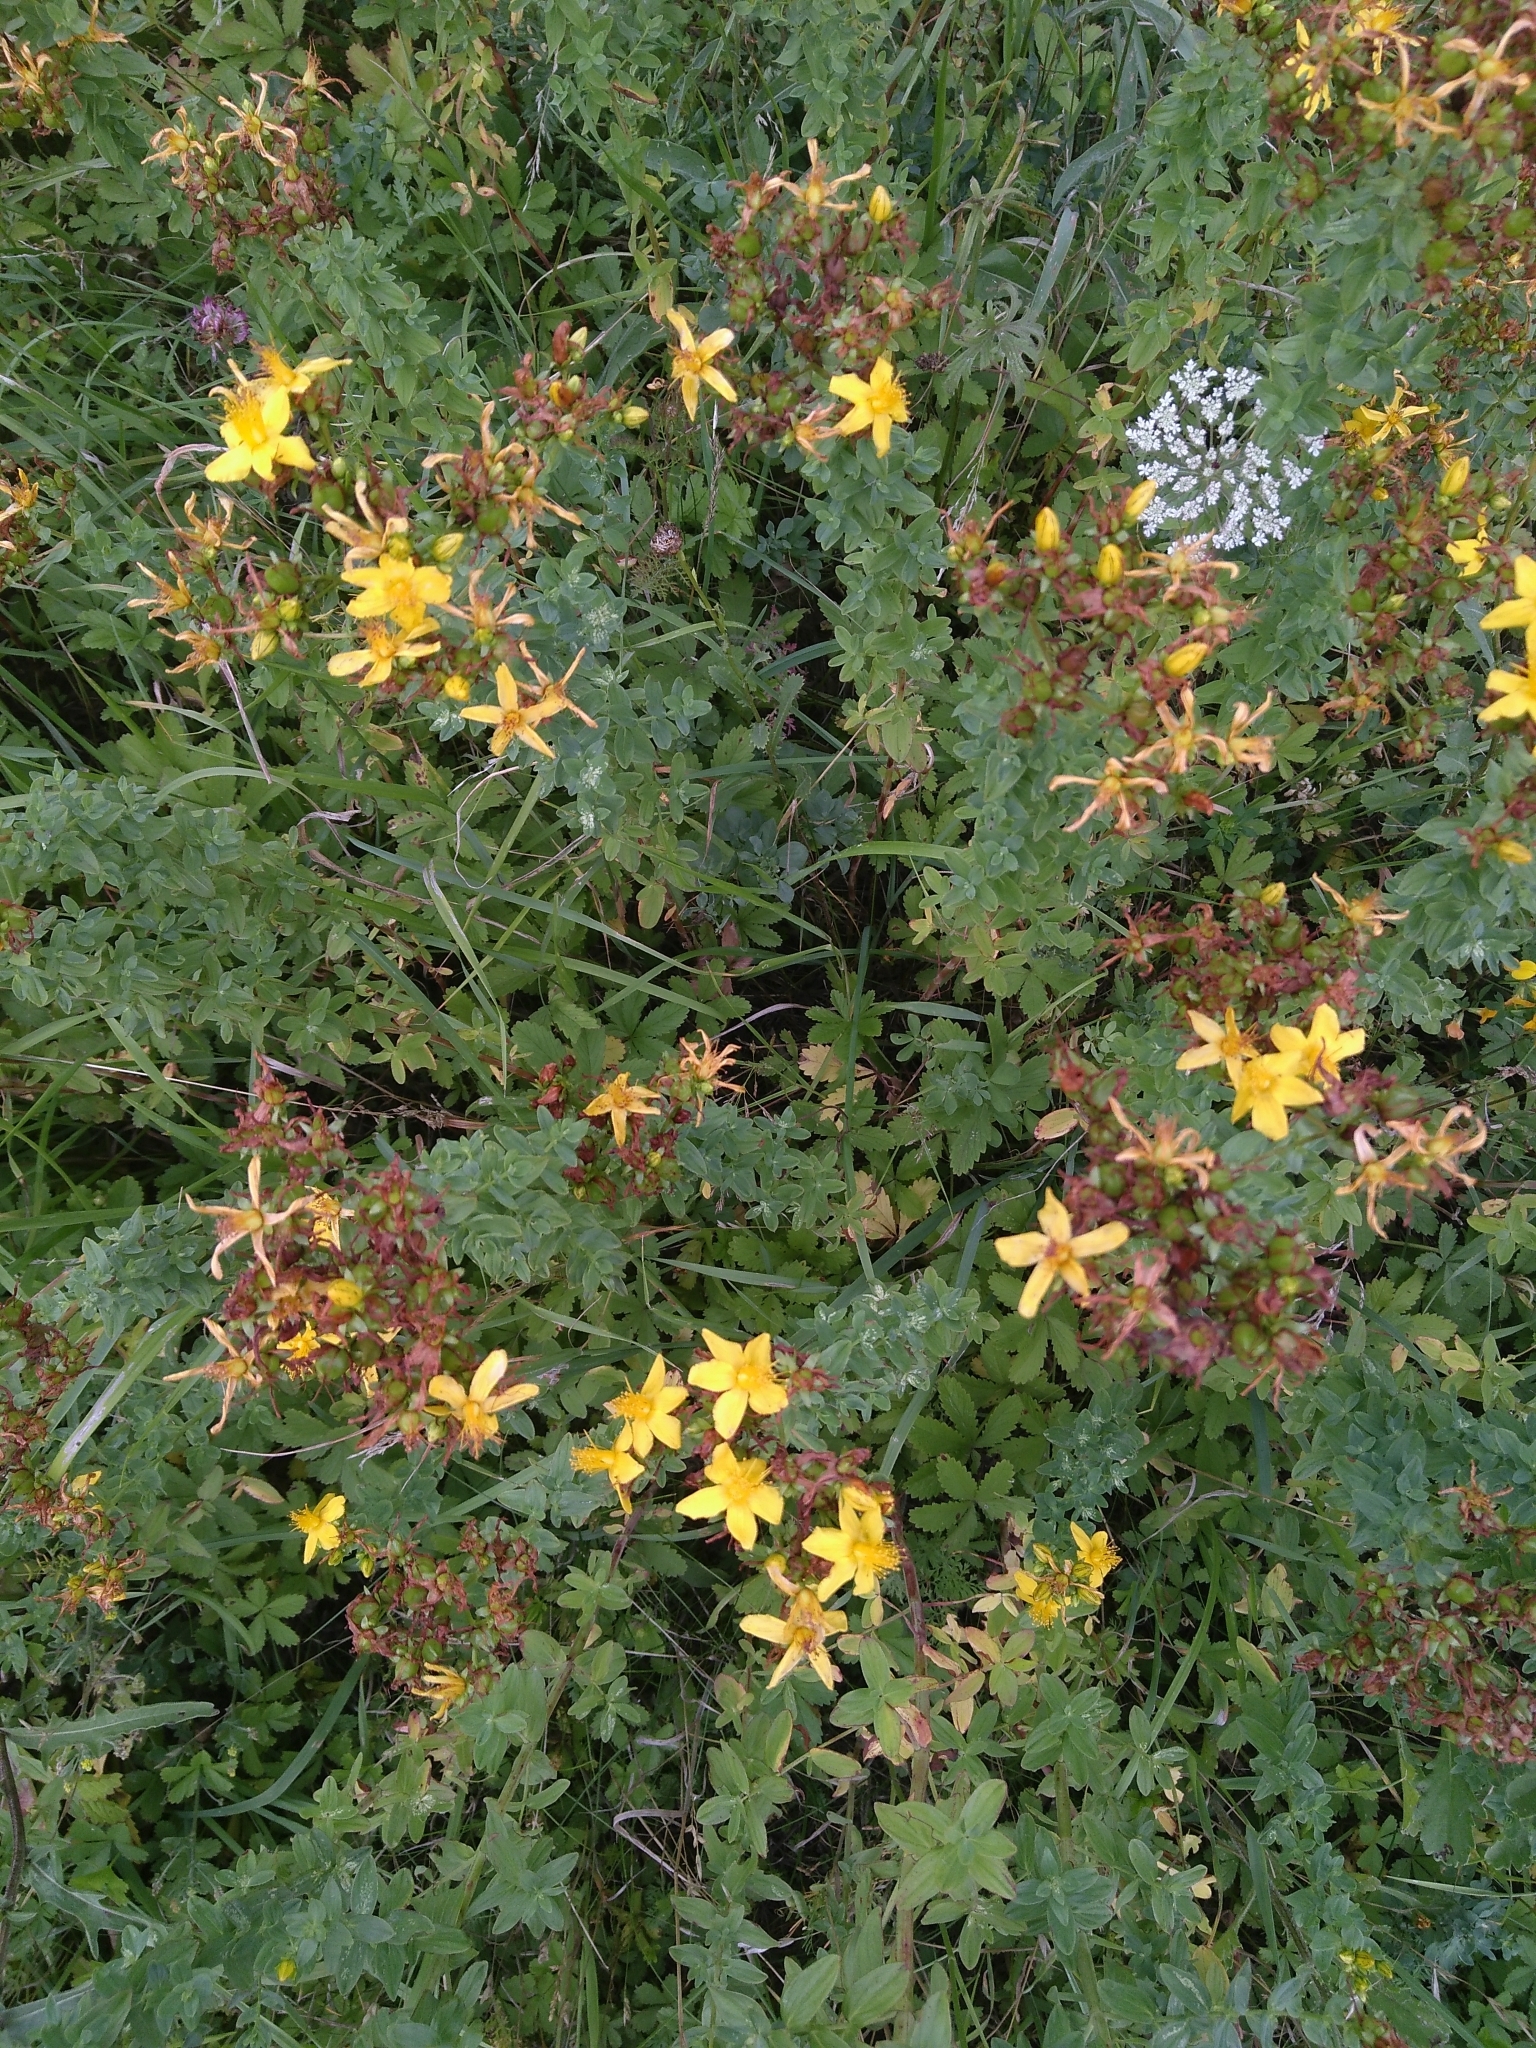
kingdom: Plantae
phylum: Tracheophyta
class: Magnoliopsida
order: Malpighiales
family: Hypericaceae
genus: Hypericum
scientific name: Hypericum perforatum
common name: Common st. johnswort
